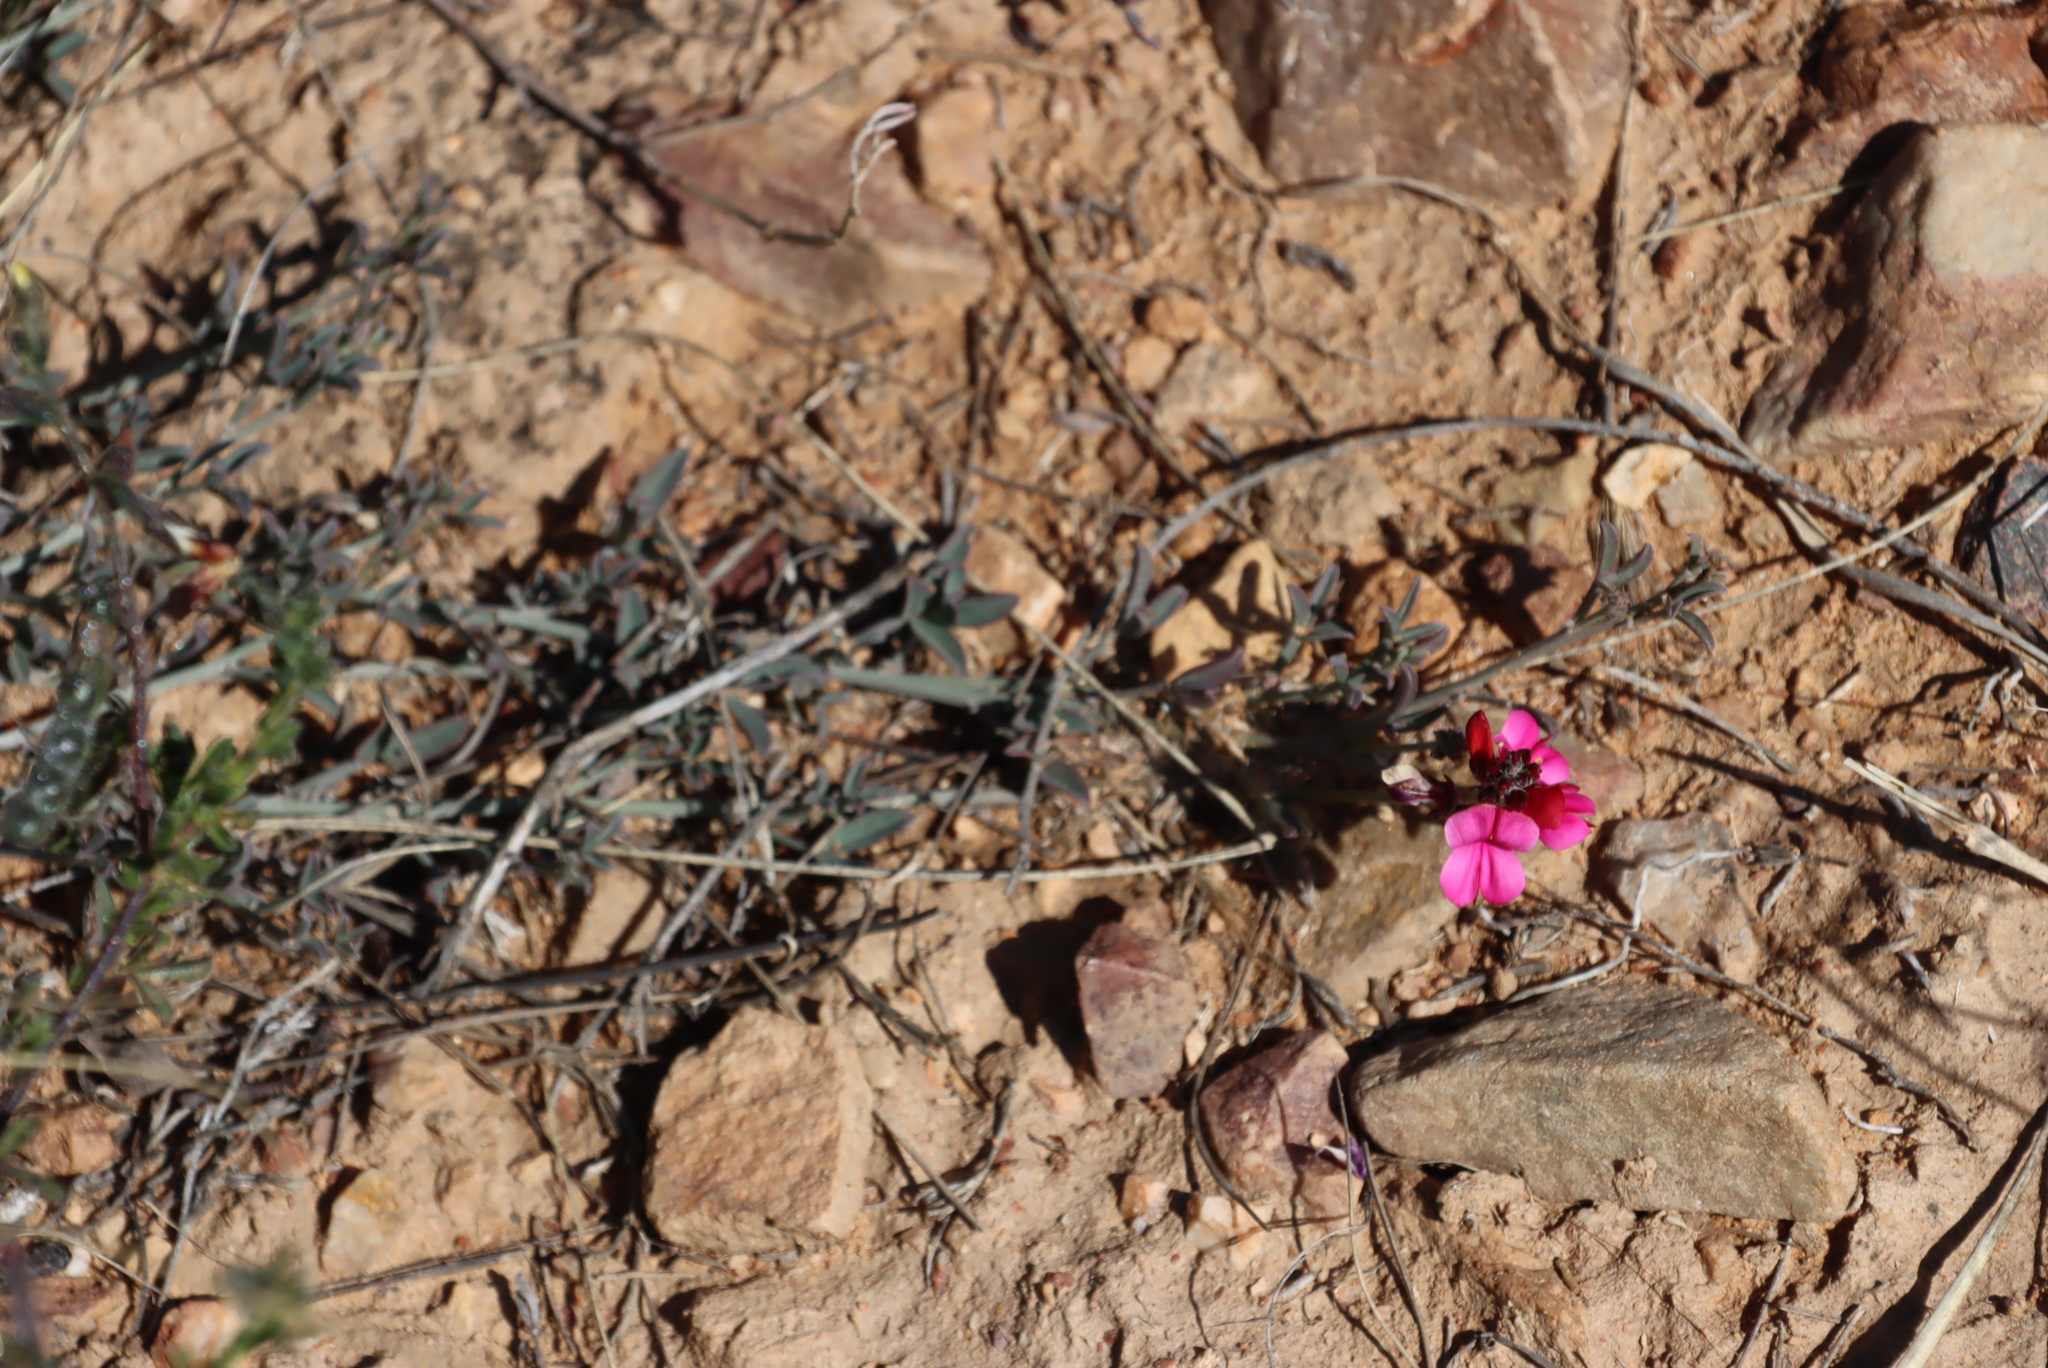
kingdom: Plantae
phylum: Tracheophyta
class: Magnoliopsida
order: Fabales
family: Fabaceae
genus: Indigofera
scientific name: Indigofera complicata
